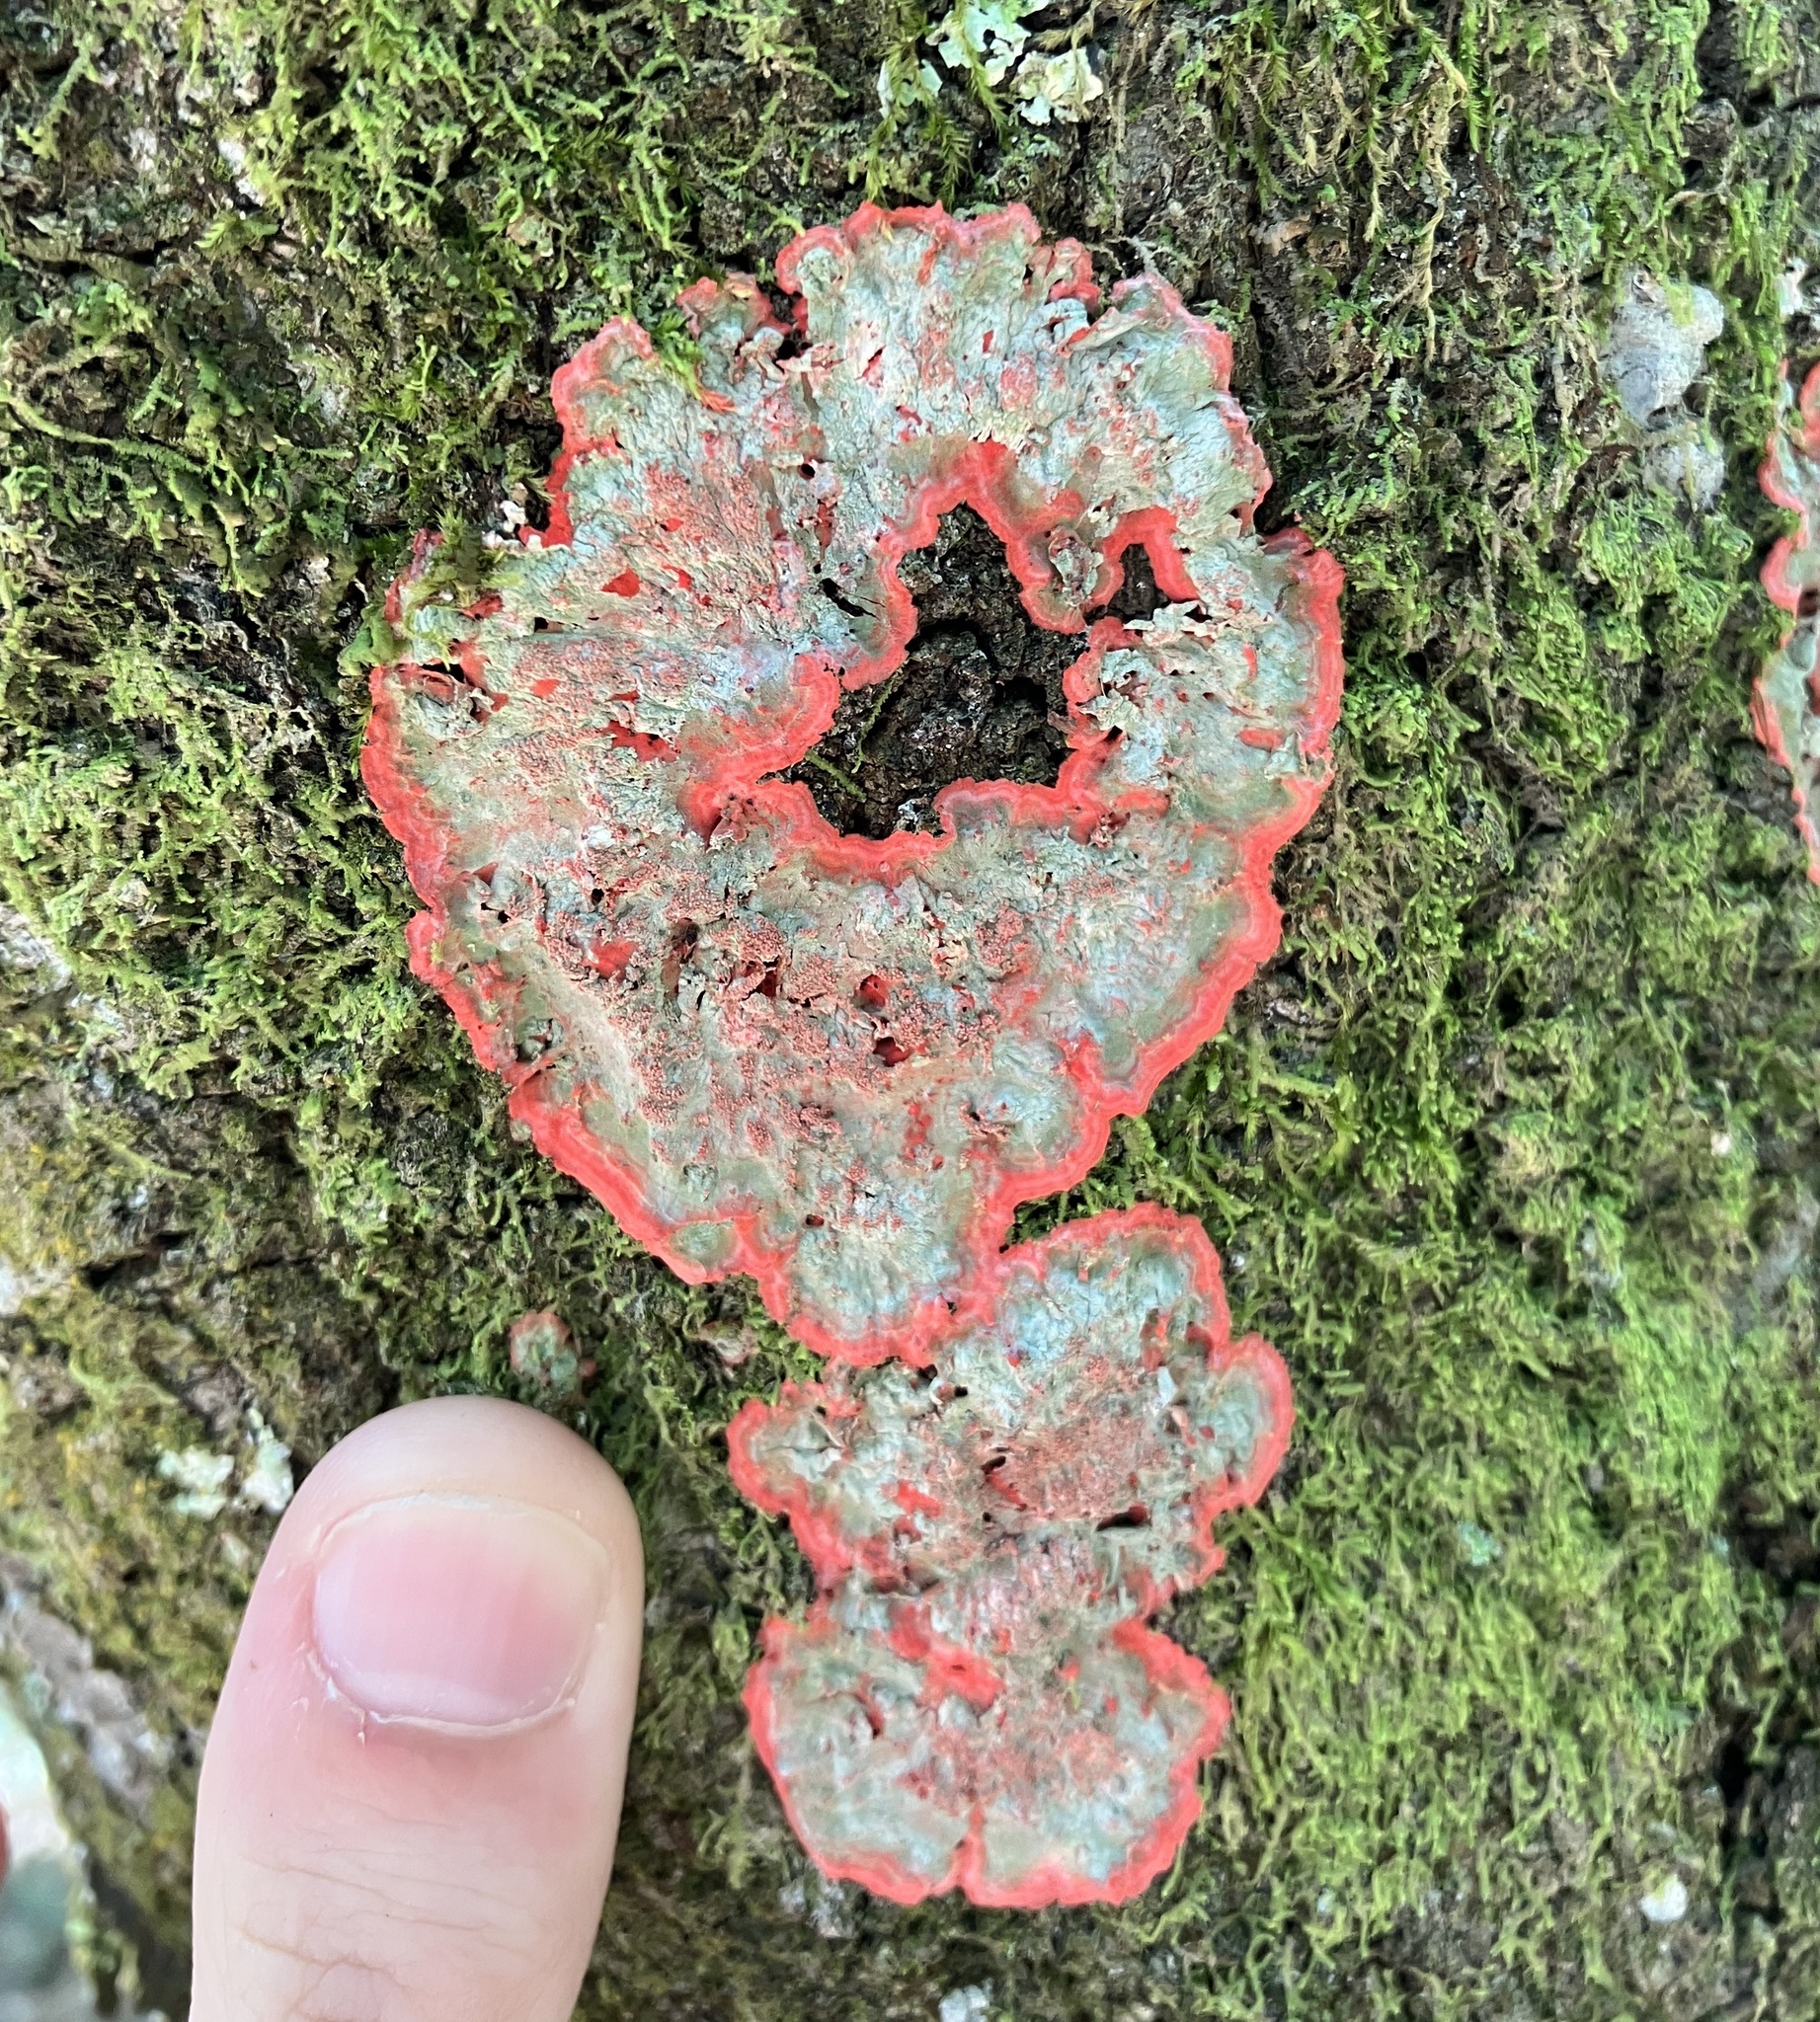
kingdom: Fungi
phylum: Ascomycota
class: Arthoniomycetes
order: Arthoniales
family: Arthoniaceae
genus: Herpothallon
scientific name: Herpothallon rubrocinctum
